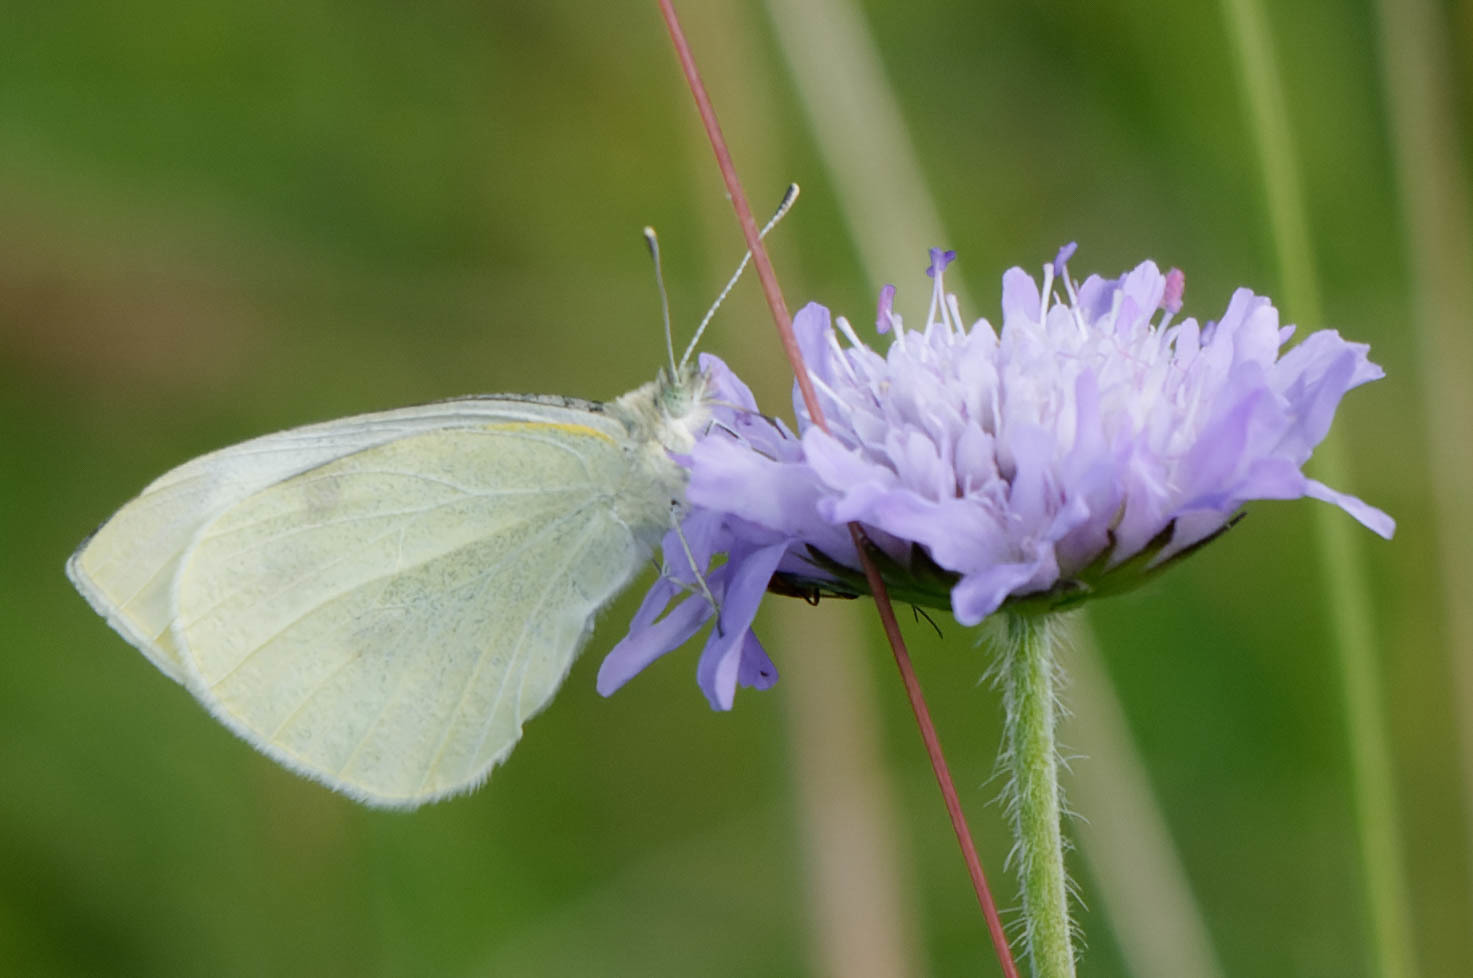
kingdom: Animalia
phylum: Arthropoda
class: Insecta
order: Lepidoptera
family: Pieridae
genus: Pieris
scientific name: Pieris rapae
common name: Small white
